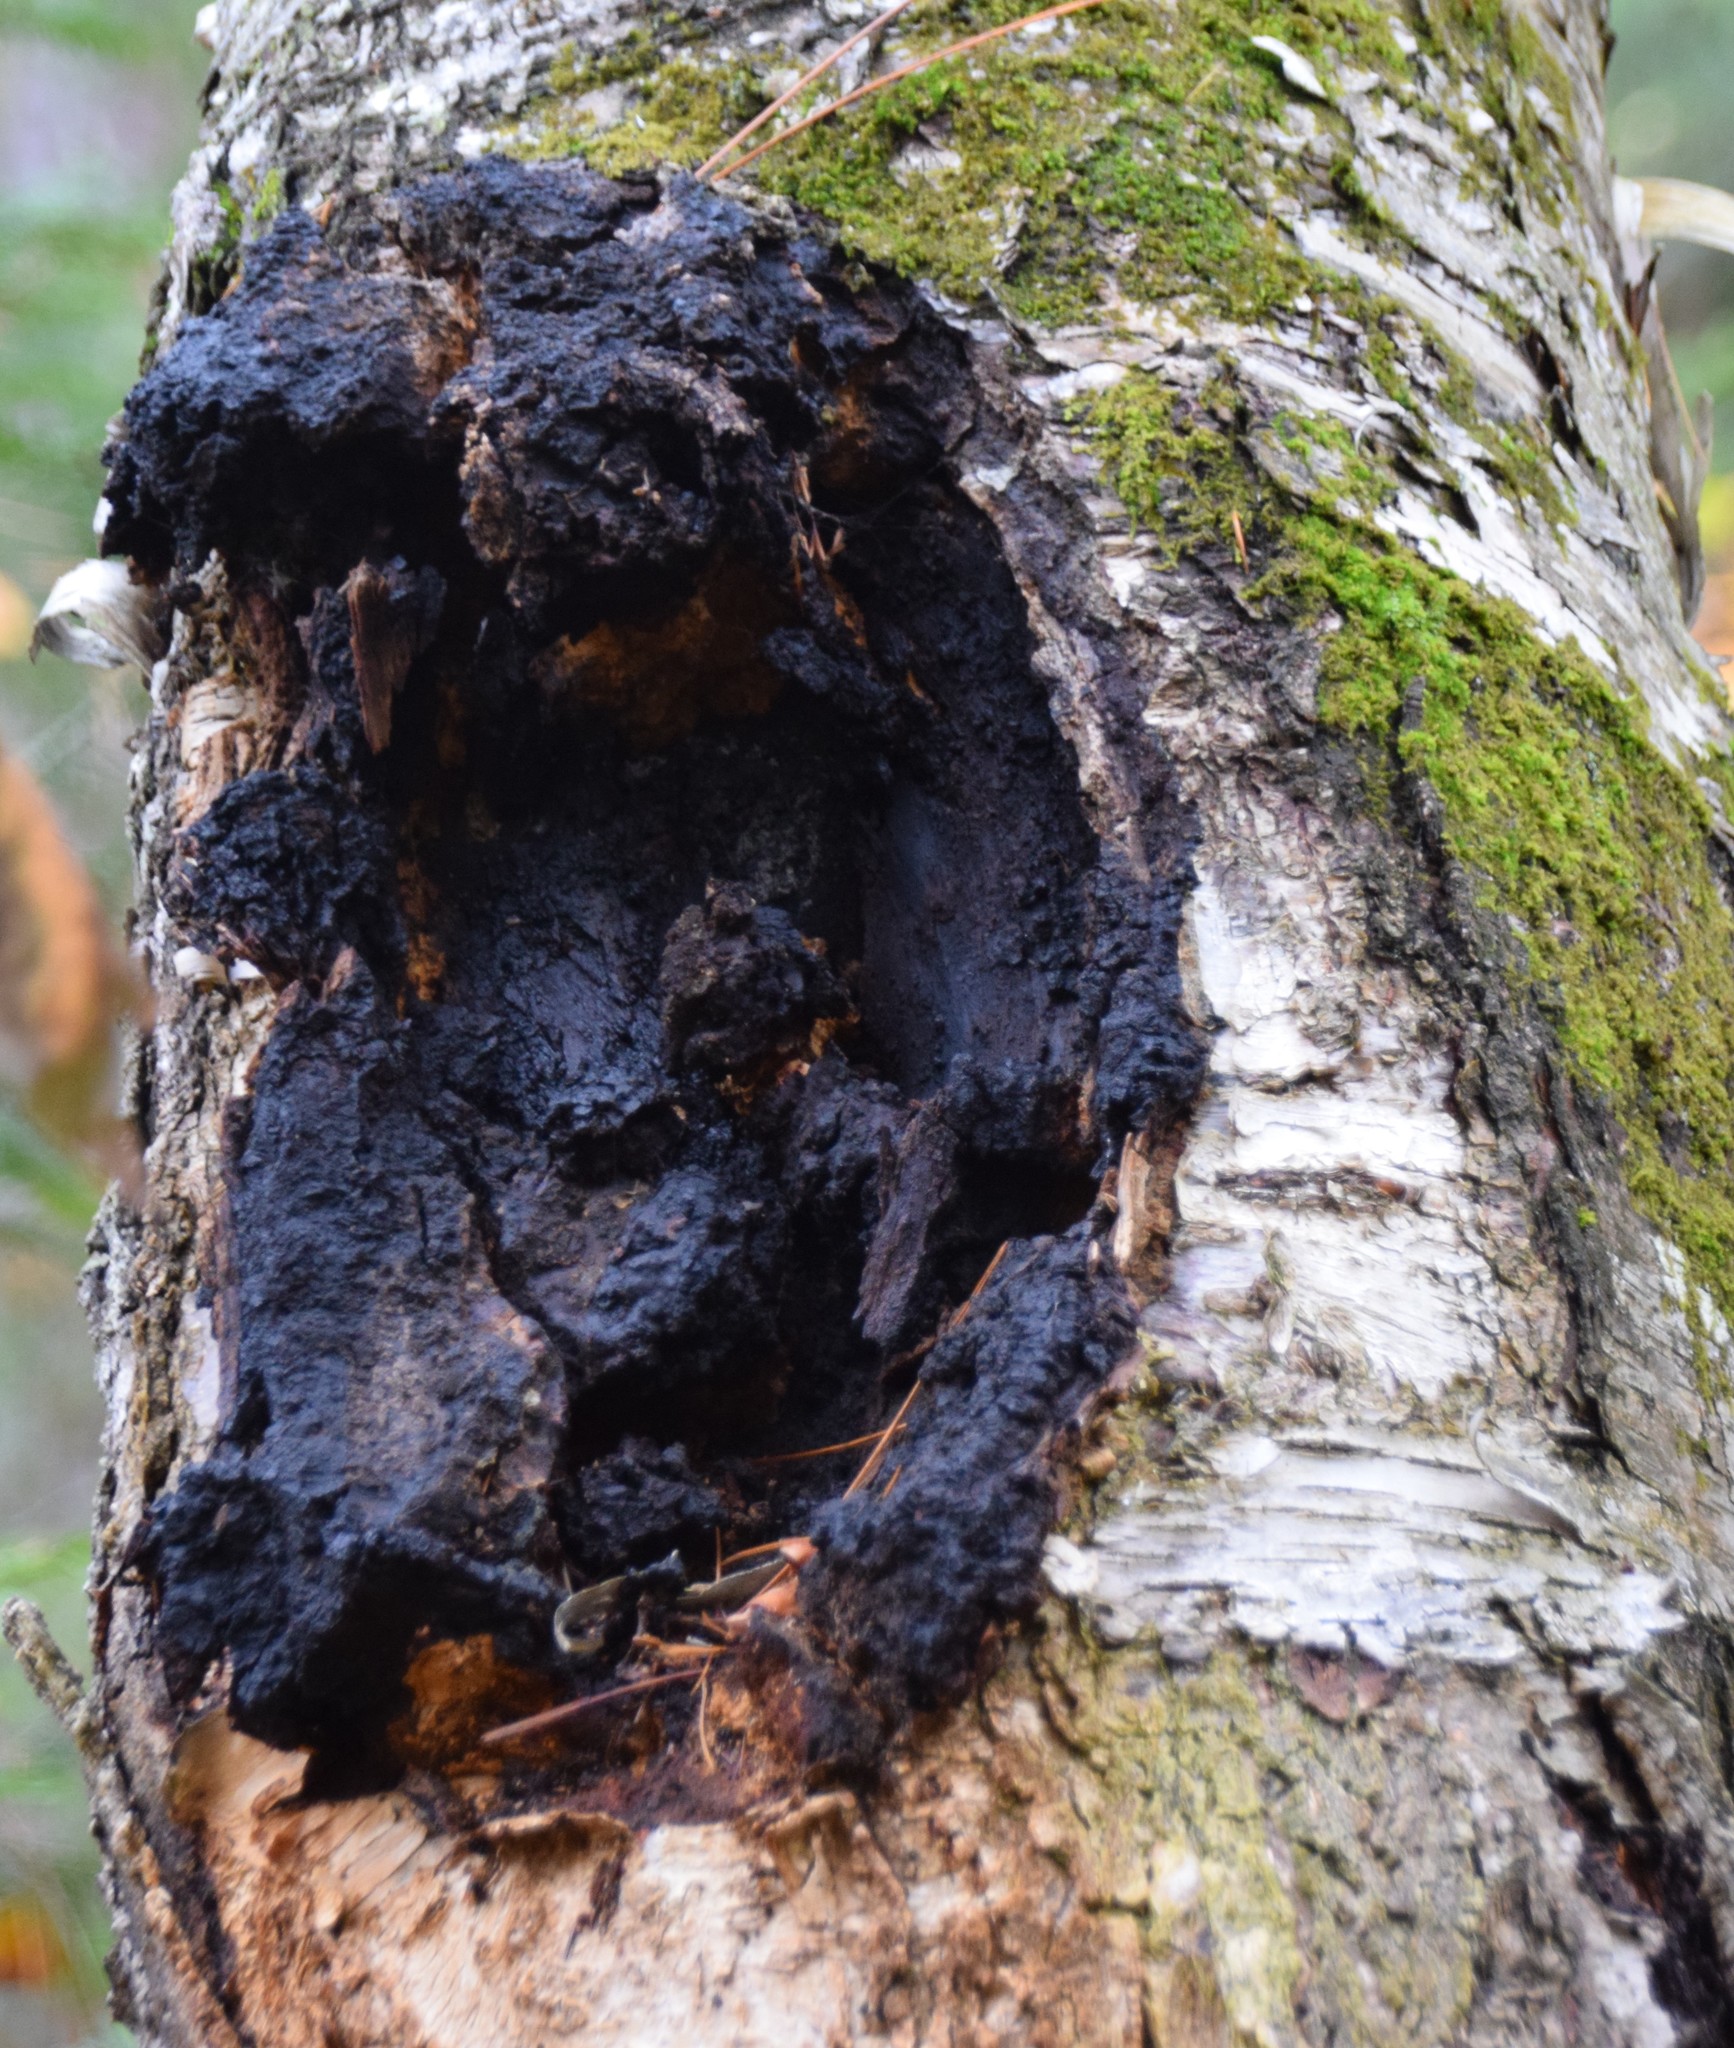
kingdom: Fungi
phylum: Basidiomycota
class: Agaricomycetes
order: Hymenochaetales
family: Hymenochaetaceae
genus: Inonotus
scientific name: Inonotus obliquus
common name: Chaga
